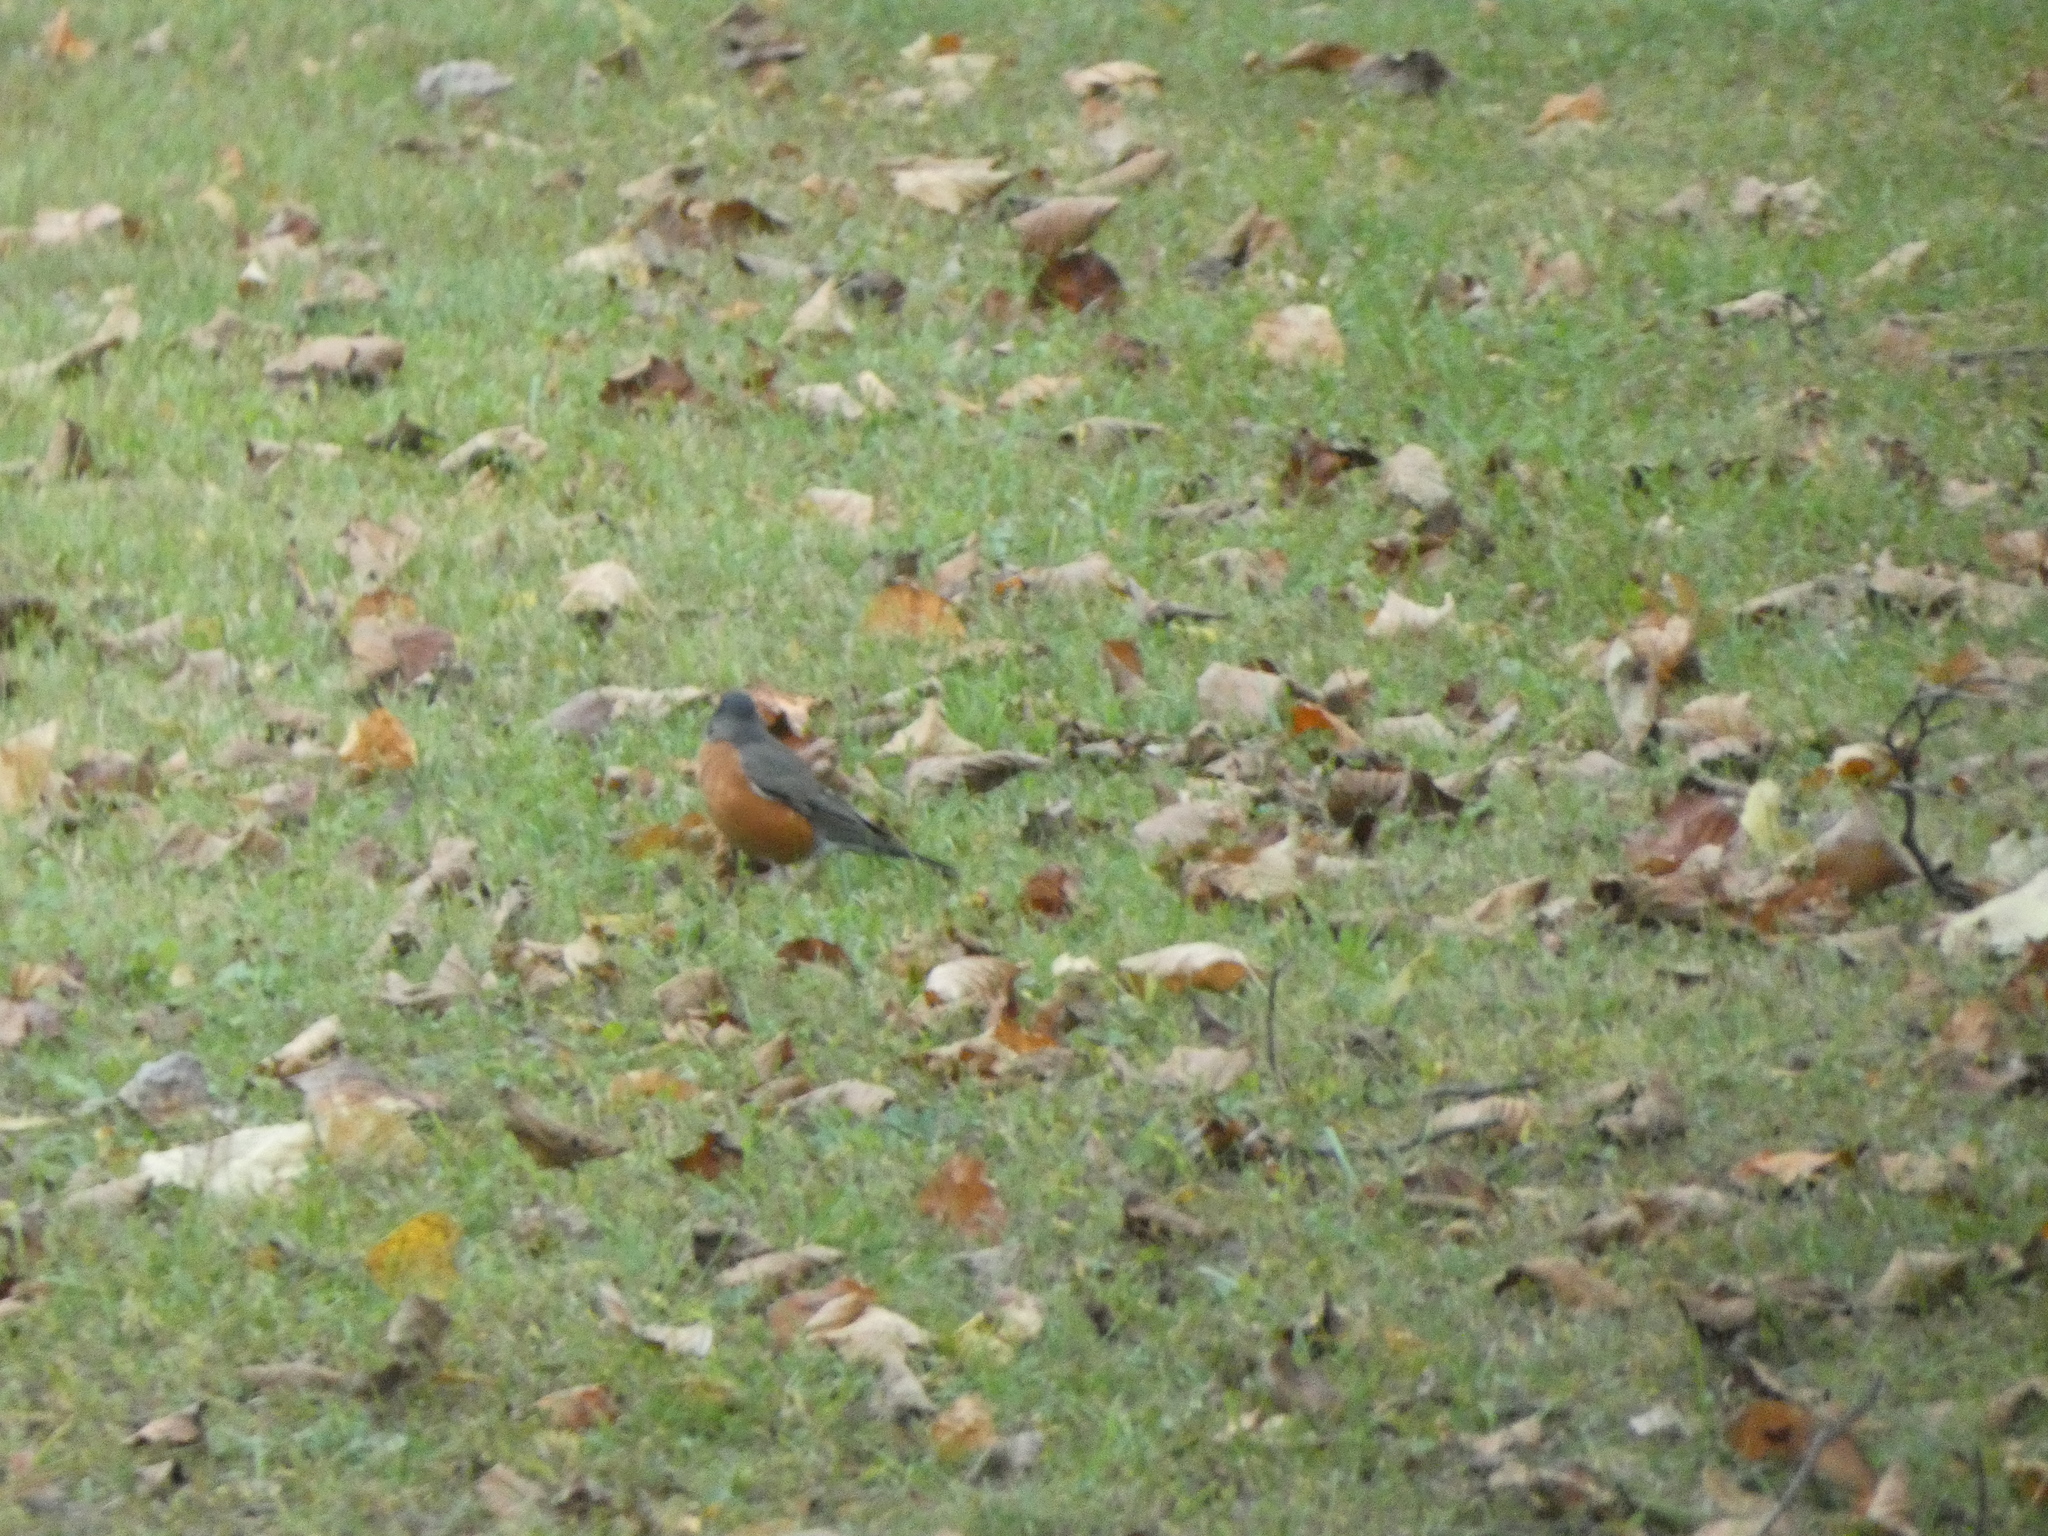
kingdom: Animalia
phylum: Chordata
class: Aves
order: Passeriformes
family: Turdidae
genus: Turdus
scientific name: Turdus migratorius
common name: American robin
